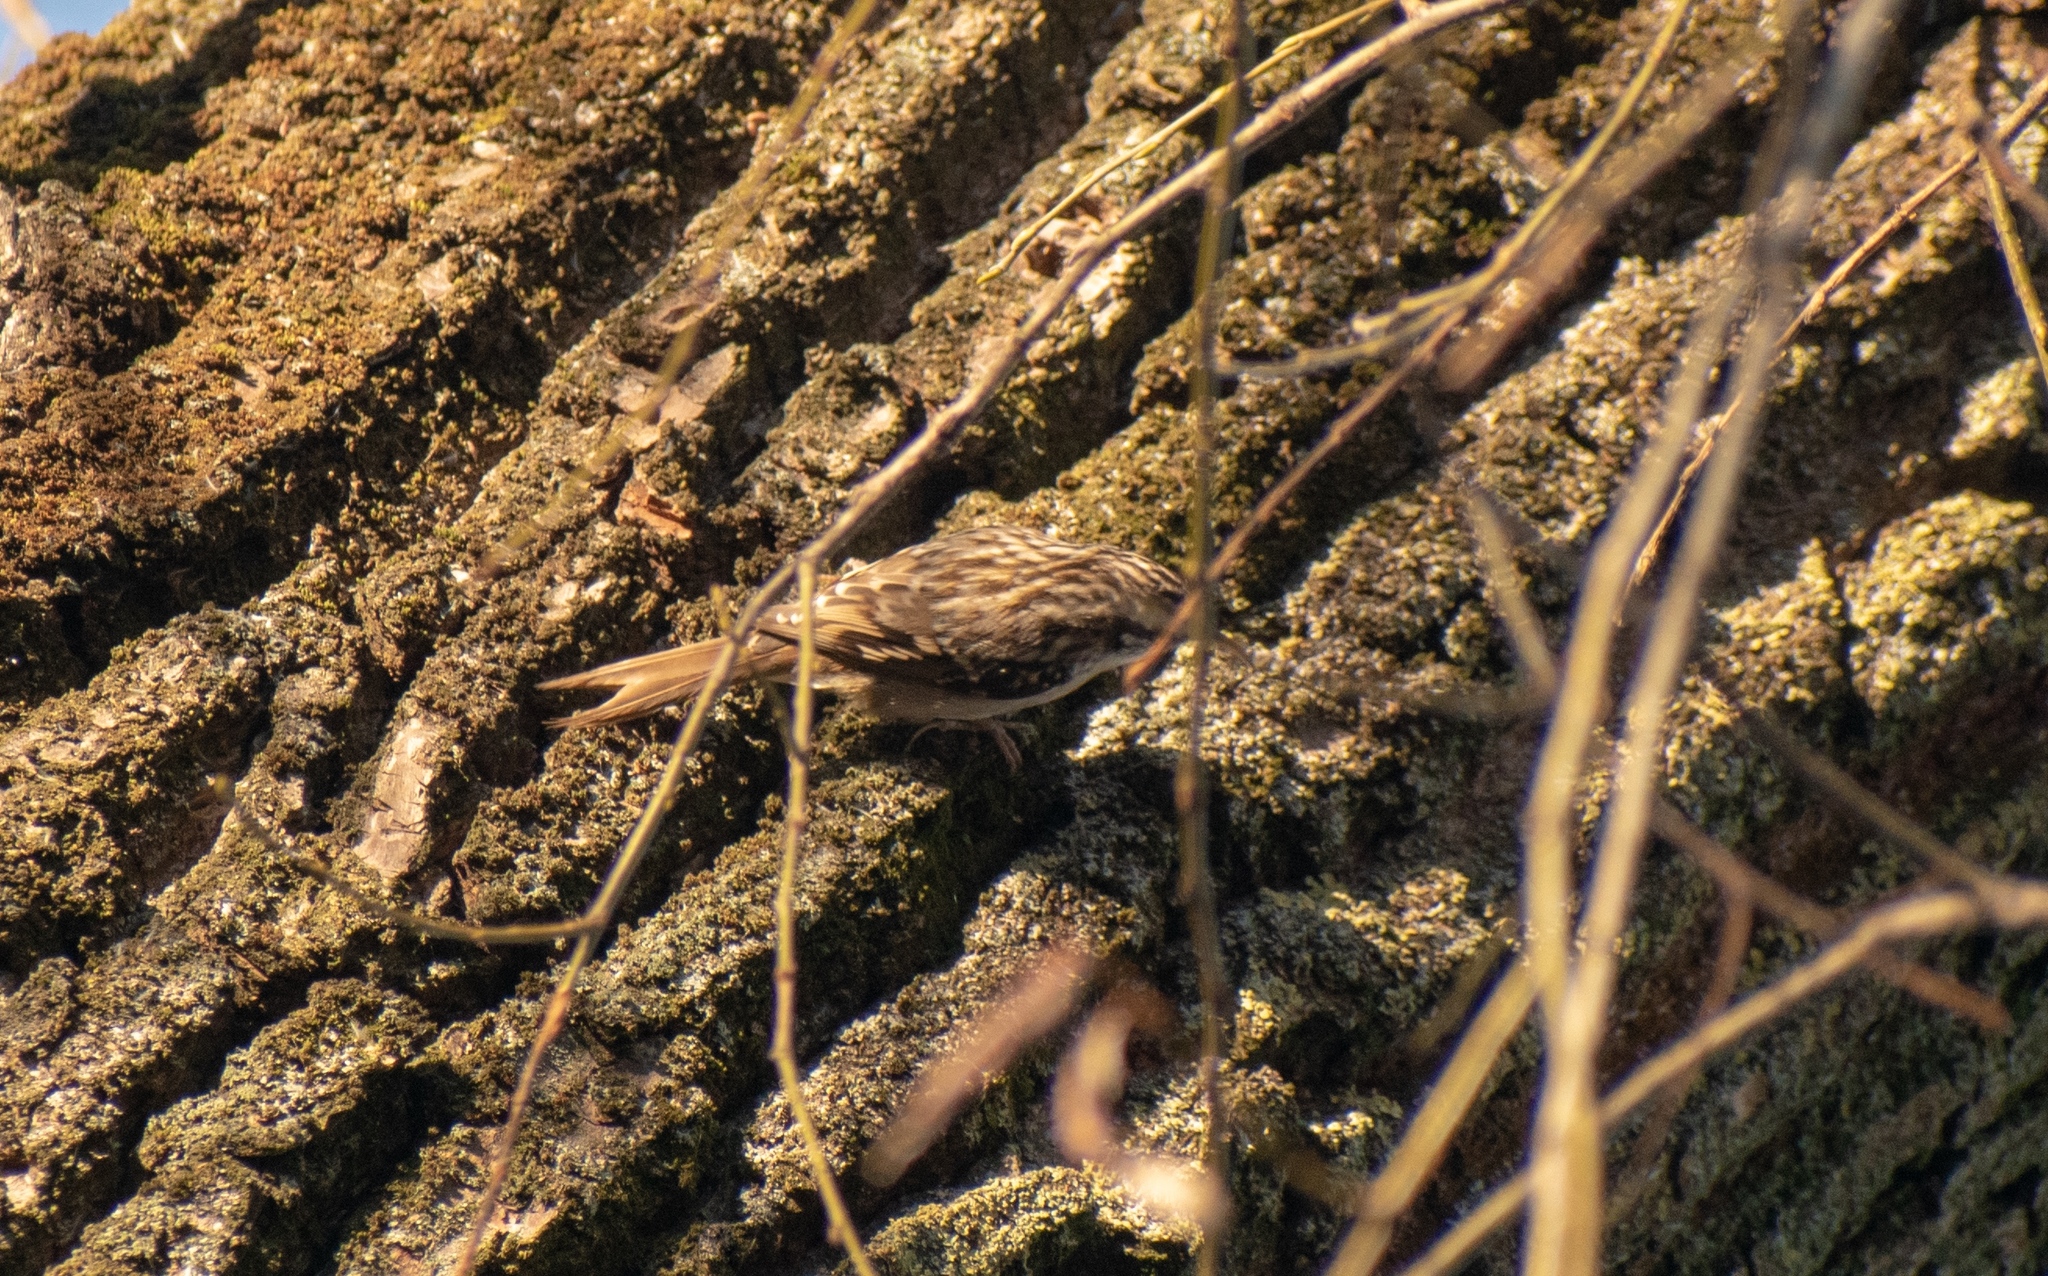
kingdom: Animalia
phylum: Chordata
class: Aves
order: Passeriformes
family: Certhiidae
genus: Certhia
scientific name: Certhia brachydactyla
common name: Short-toed treecreeper
